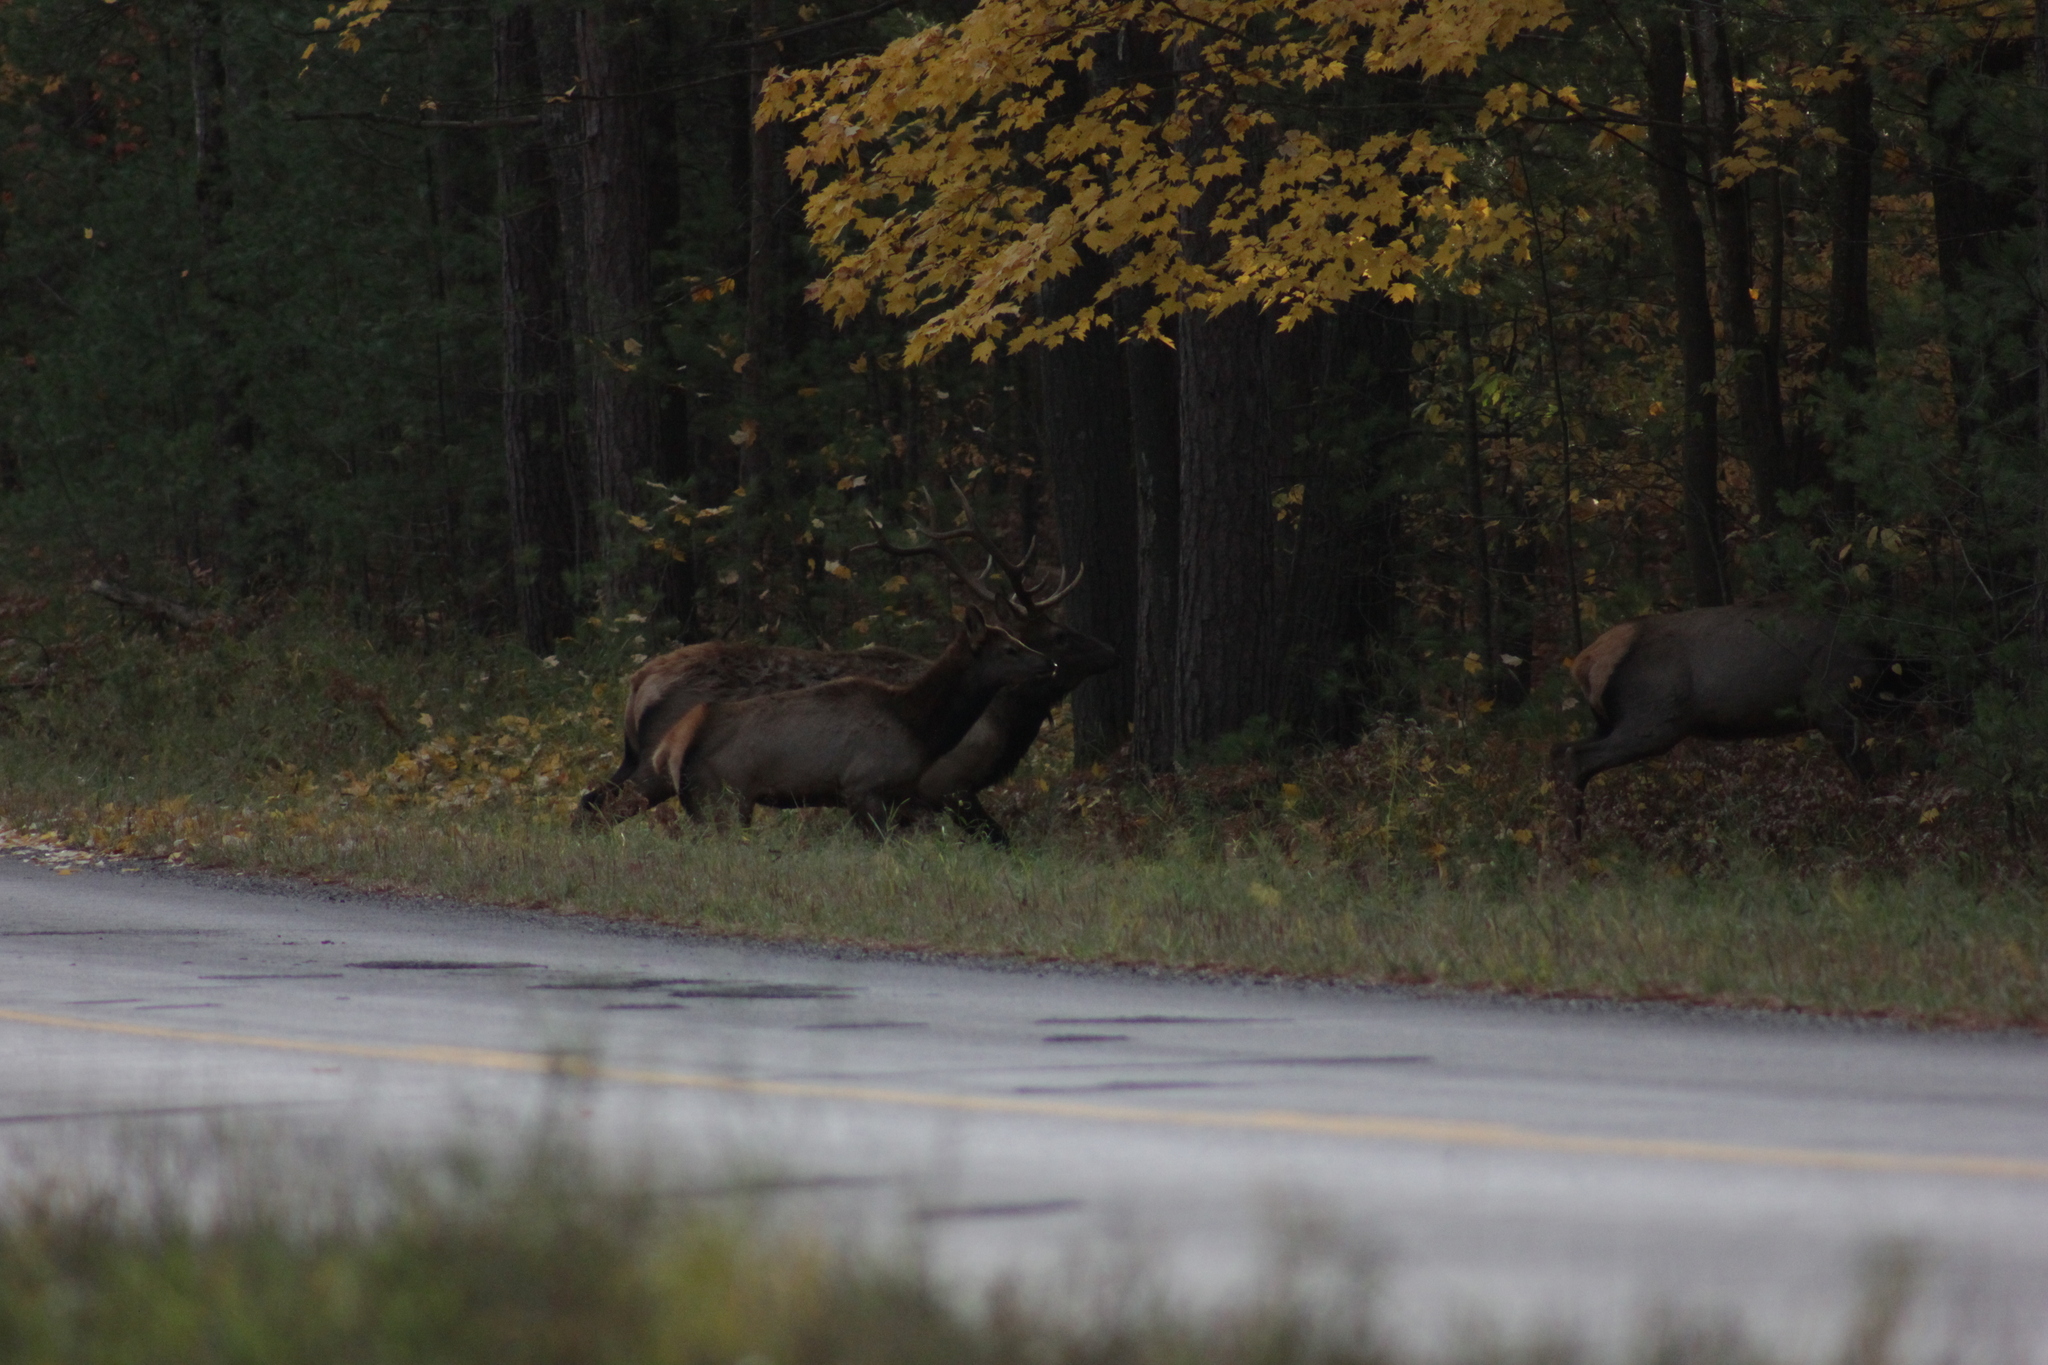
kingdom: Animalia
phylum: Chordata
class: Mammalia
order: Artiodactyla
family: Cervidae
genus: Cervus
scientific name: Cervus elaphus
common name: Red deer
